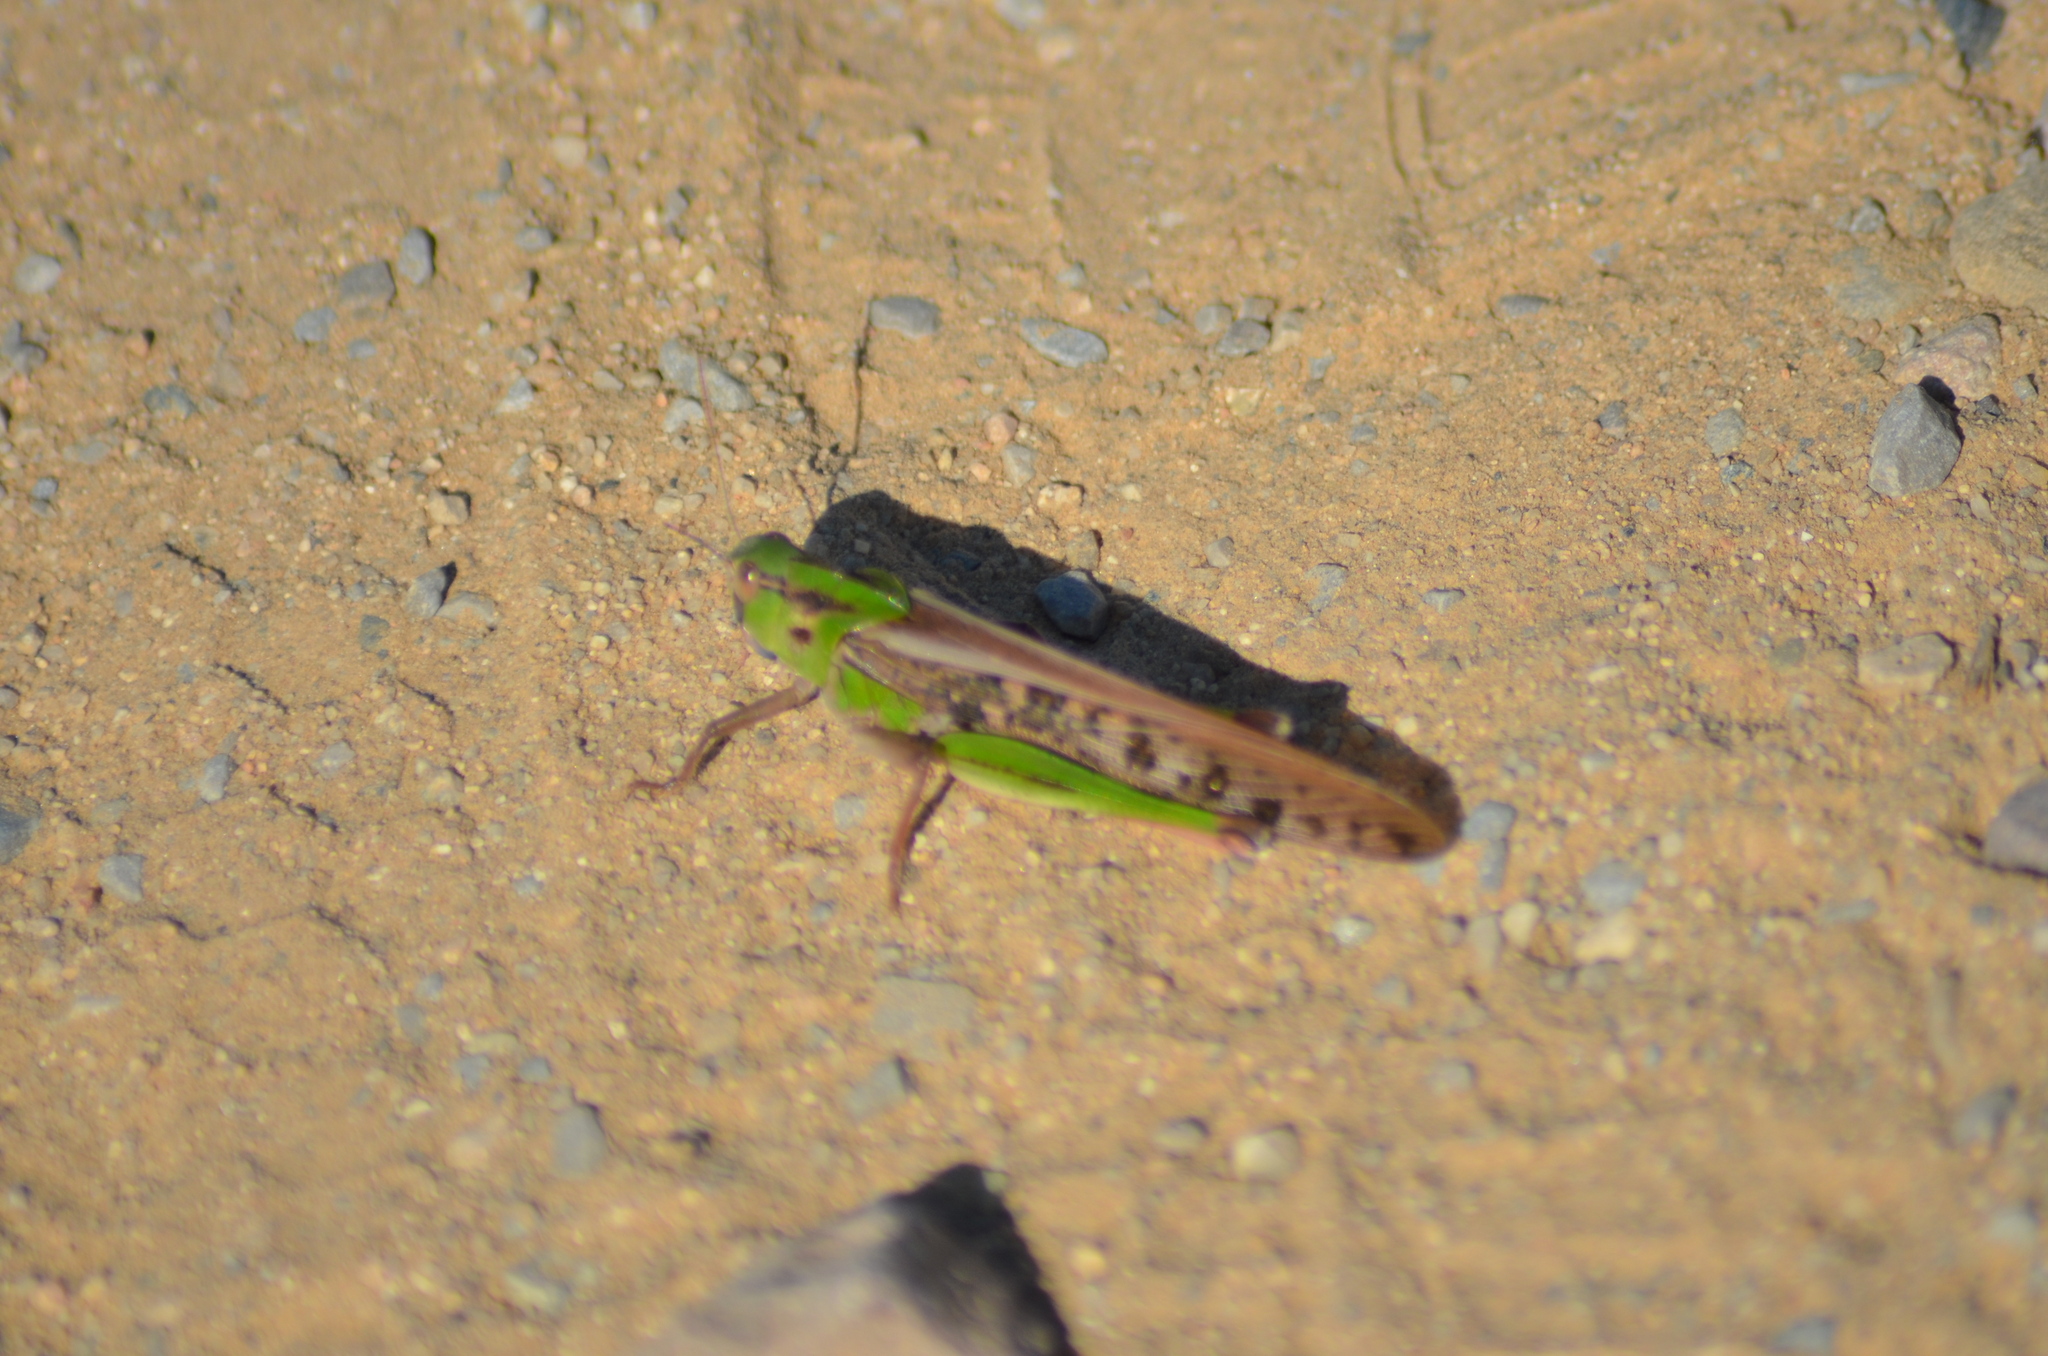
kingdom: Animalia
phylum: Arthropoda
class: Insecta
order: Orthoptera
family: Acrididae
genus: Locusta
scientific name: Locusta migratoria
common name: Migratory locust
